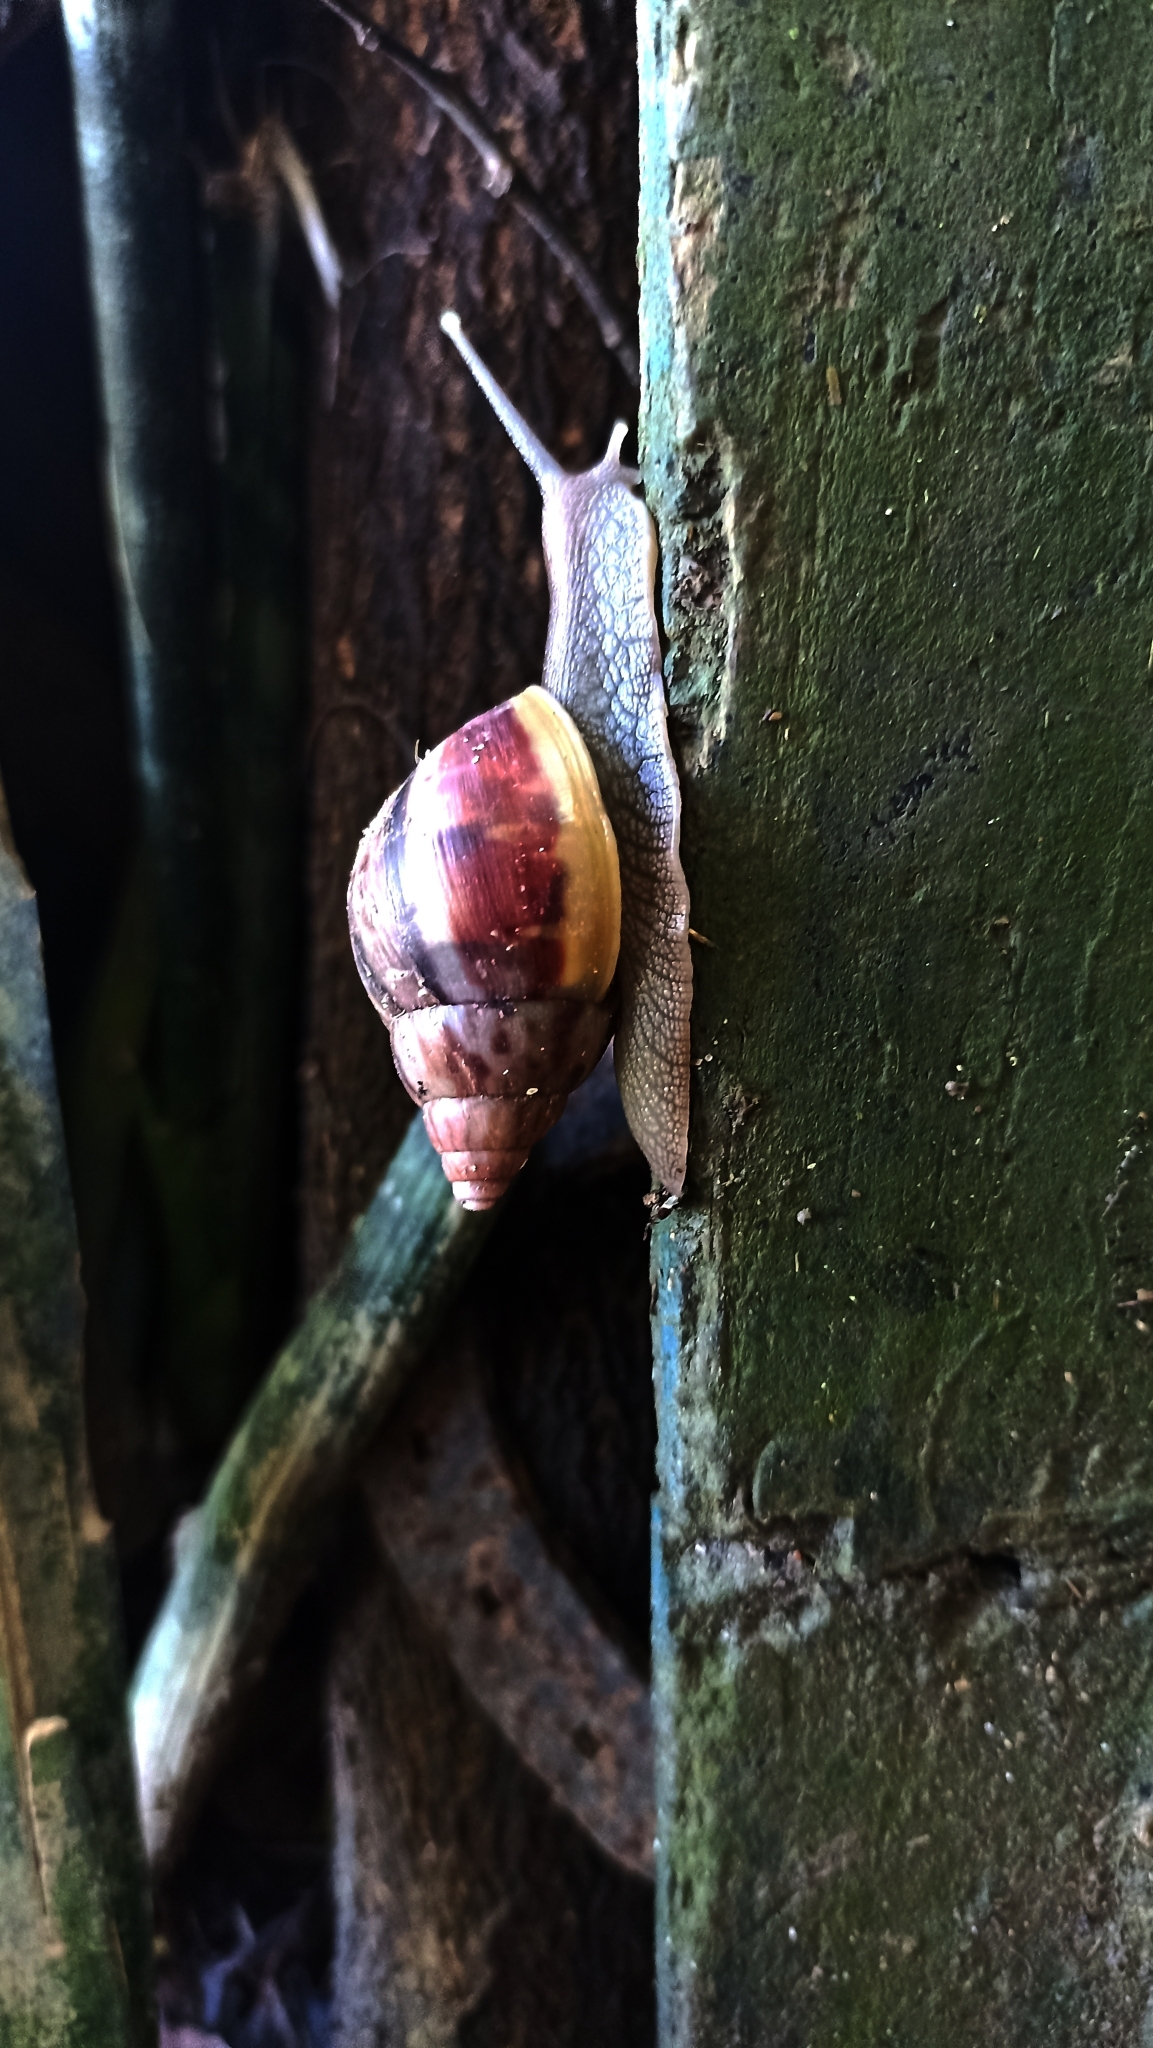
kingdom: Animalia
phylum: Mollusca
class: Gastropoda
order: Stylommatophora
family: Achatinidae
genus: Lissachatina
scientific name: Lissachatina fulica
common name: Giant african snail
